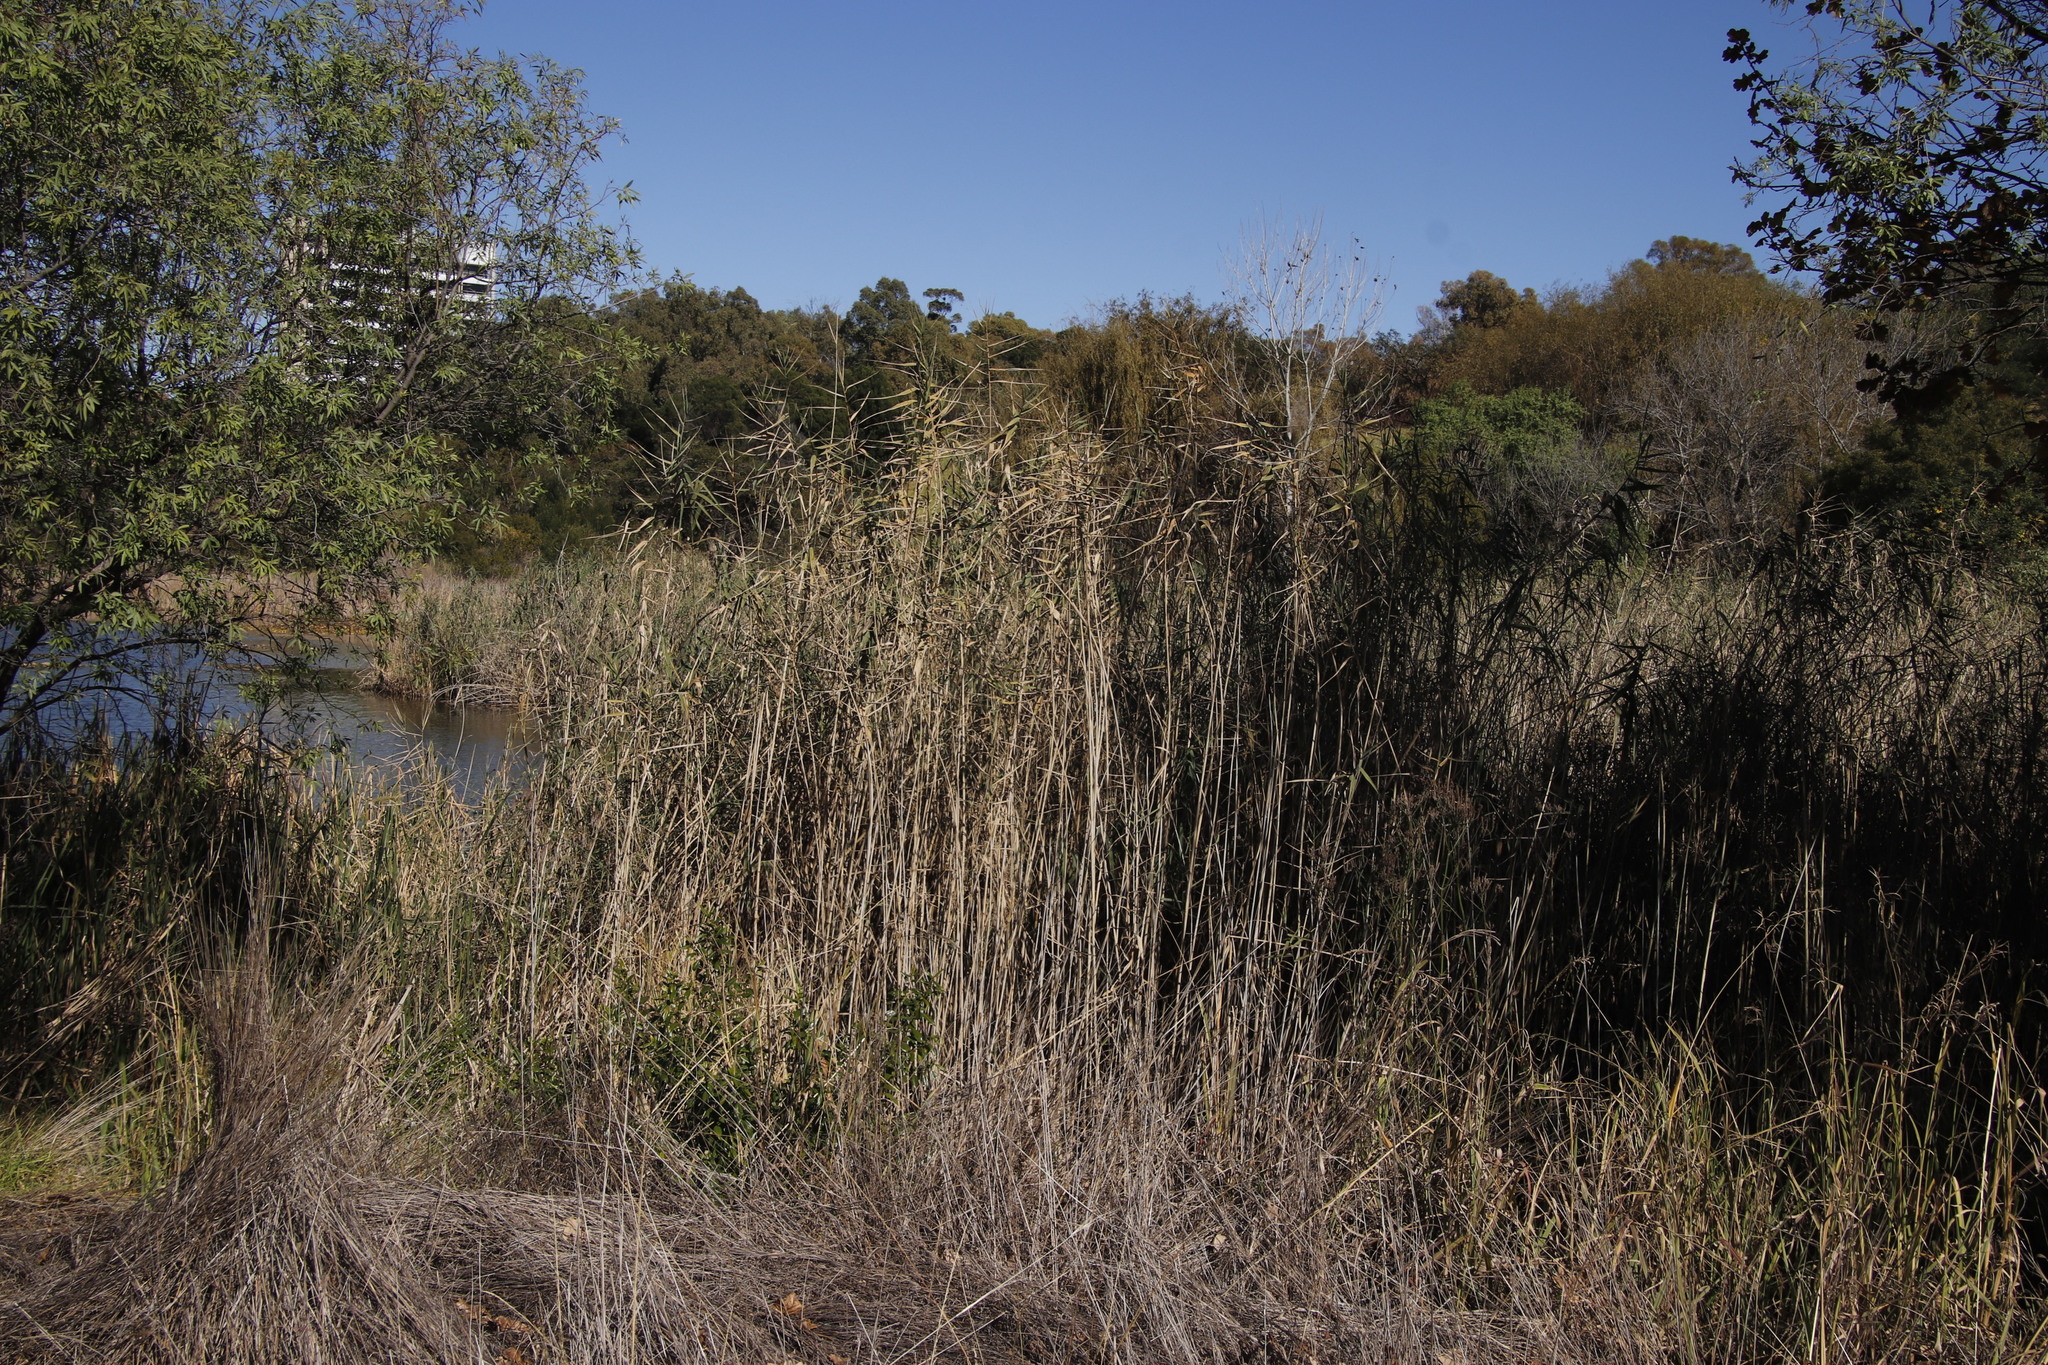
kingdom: Plantae
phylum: Tracheophyta
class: Liliopsida
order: Poales
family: Poaceae
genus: Phragmites
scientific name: Phragmites australis
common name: Common reed
